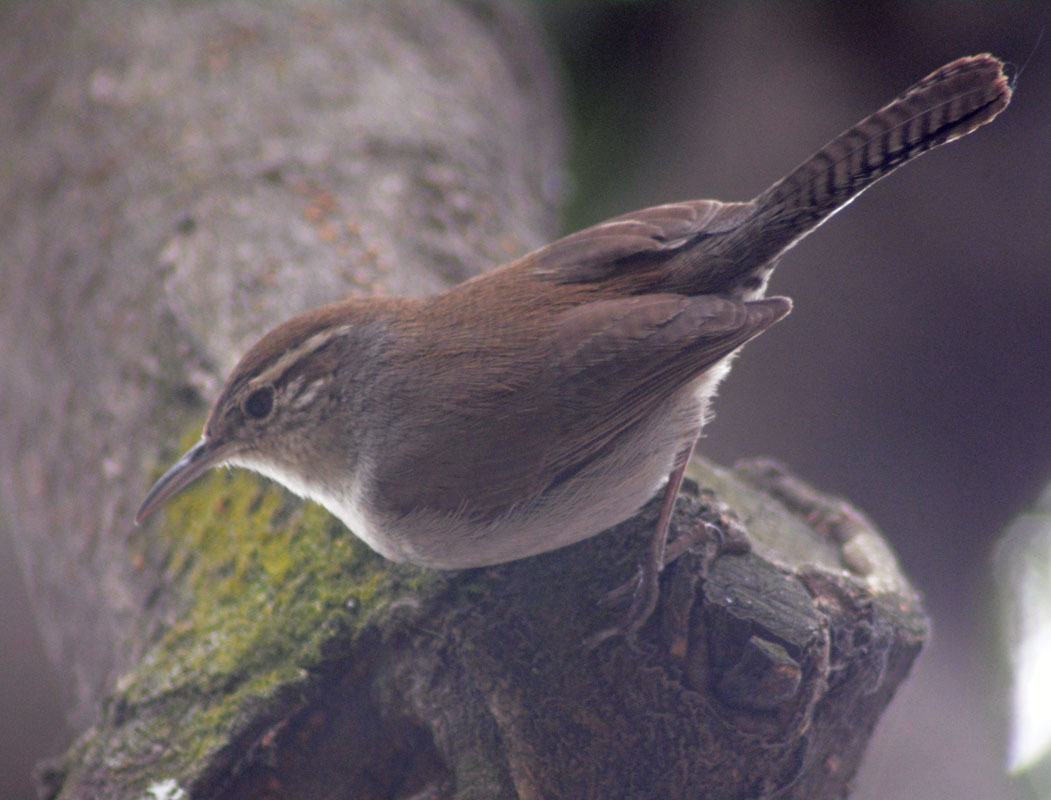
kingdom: Animalia
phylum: Chordata
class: Aves
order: Passeriformes
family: Troglodytidae
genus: Thryomanes
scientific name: Thryomanes bewickii
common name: Bewick's wren
